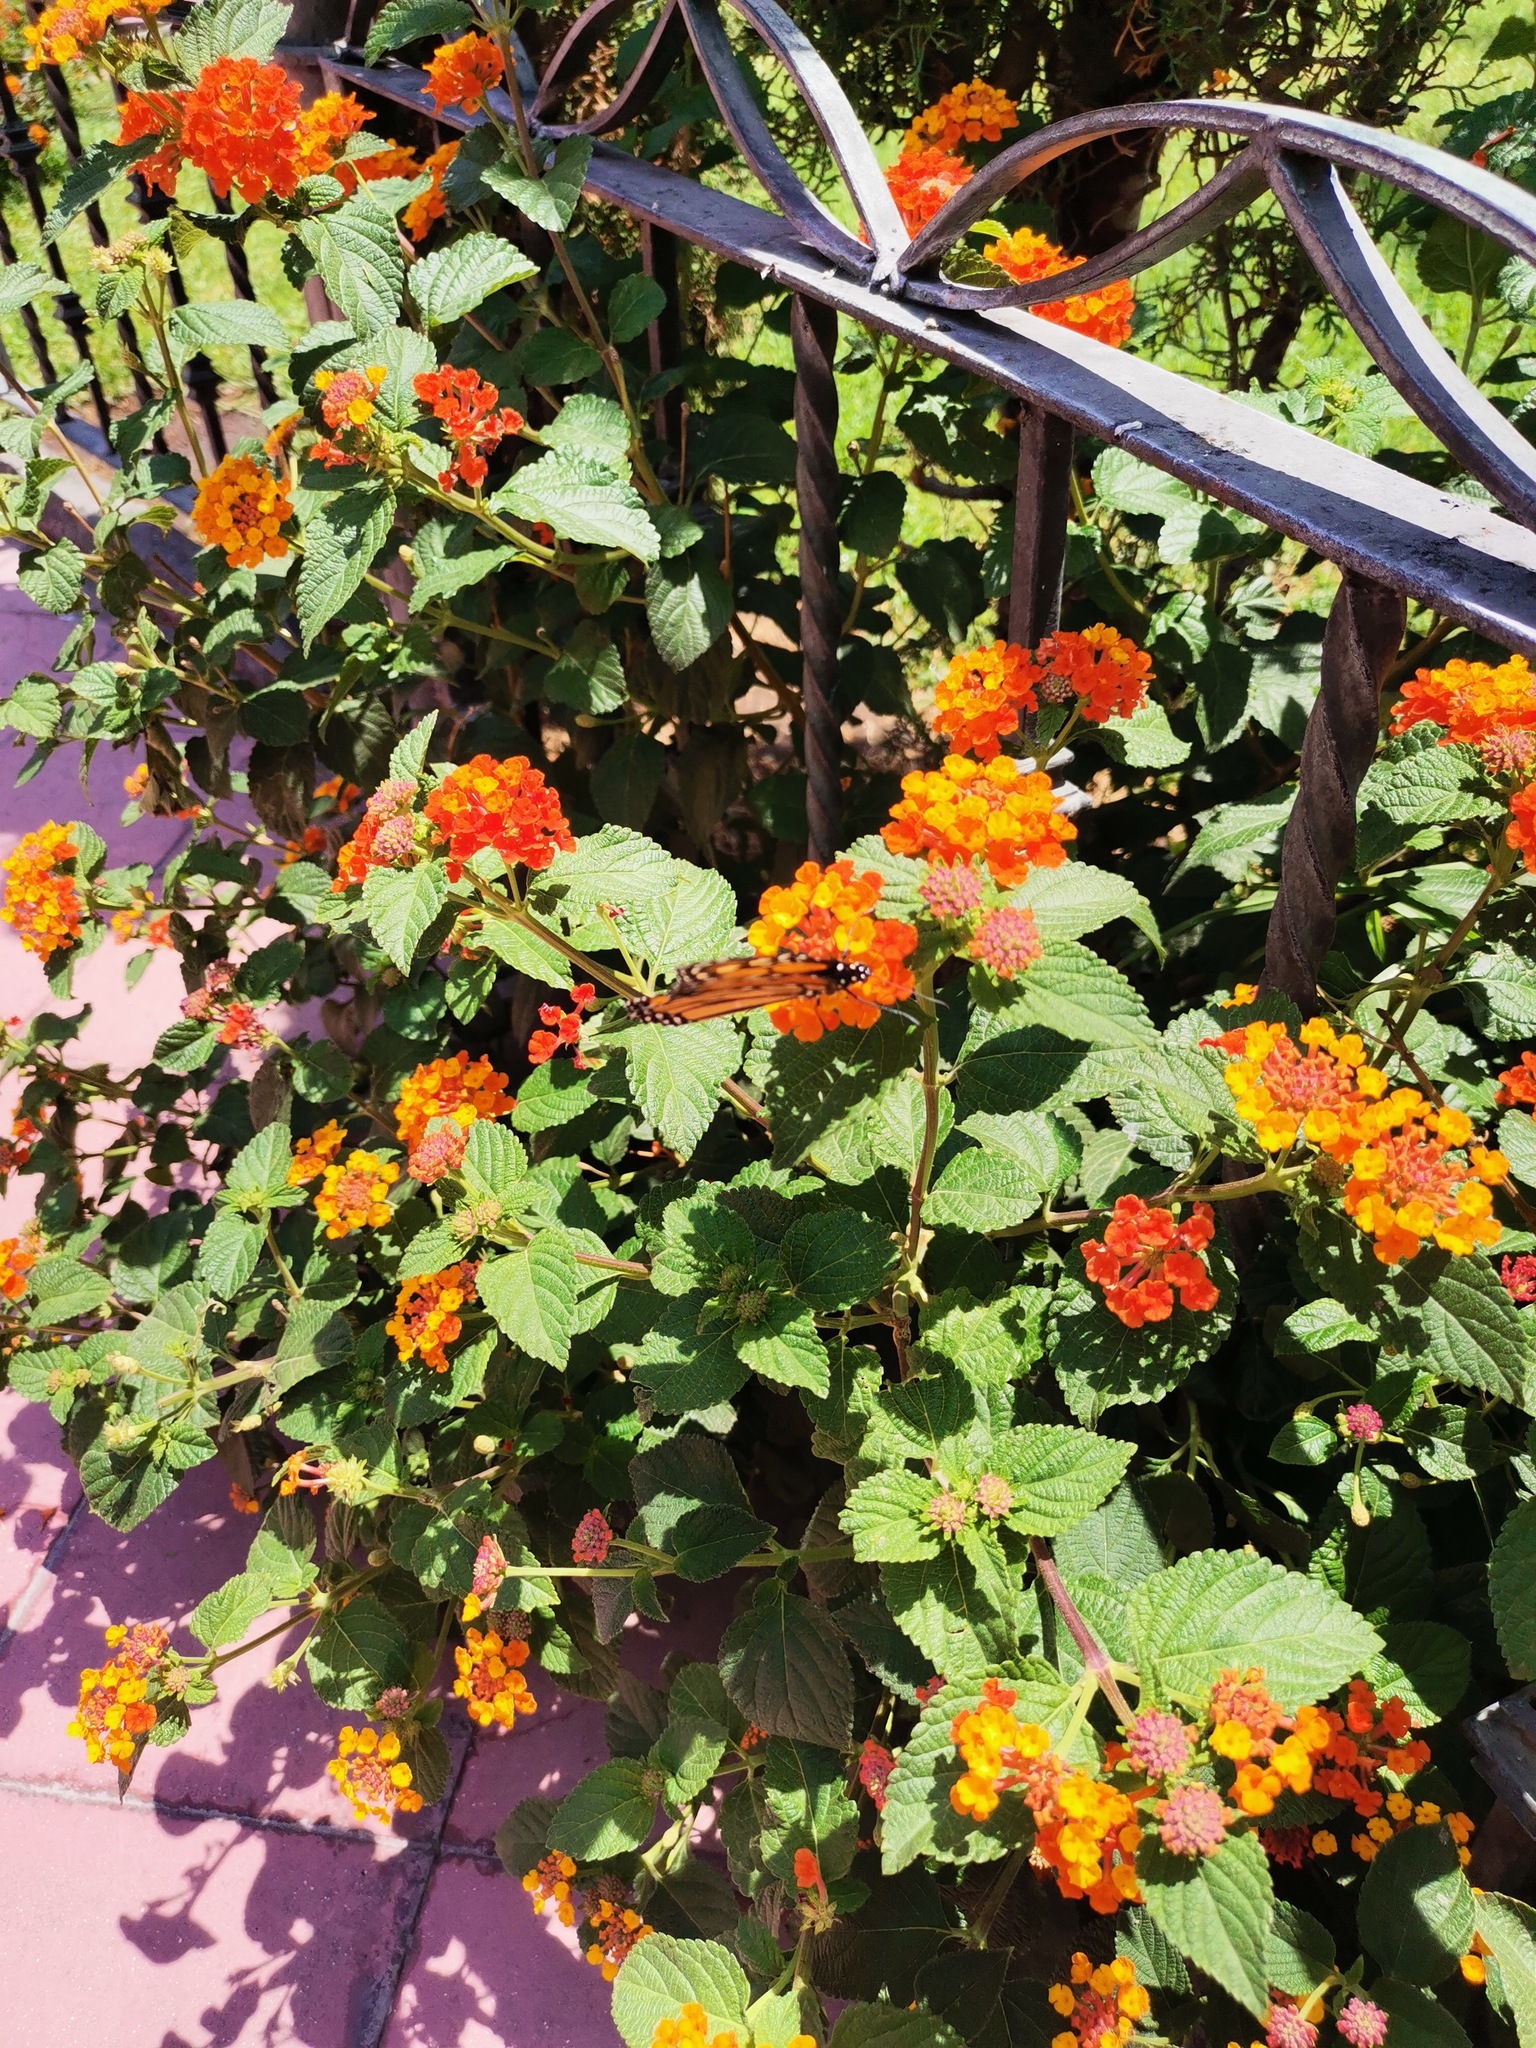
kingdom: Animalia
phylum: Arthropoda
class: Insecta
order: Lepidoptera
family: Nymphalidae
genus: Danaus
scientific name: Danaus plexippus
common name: Monarch
